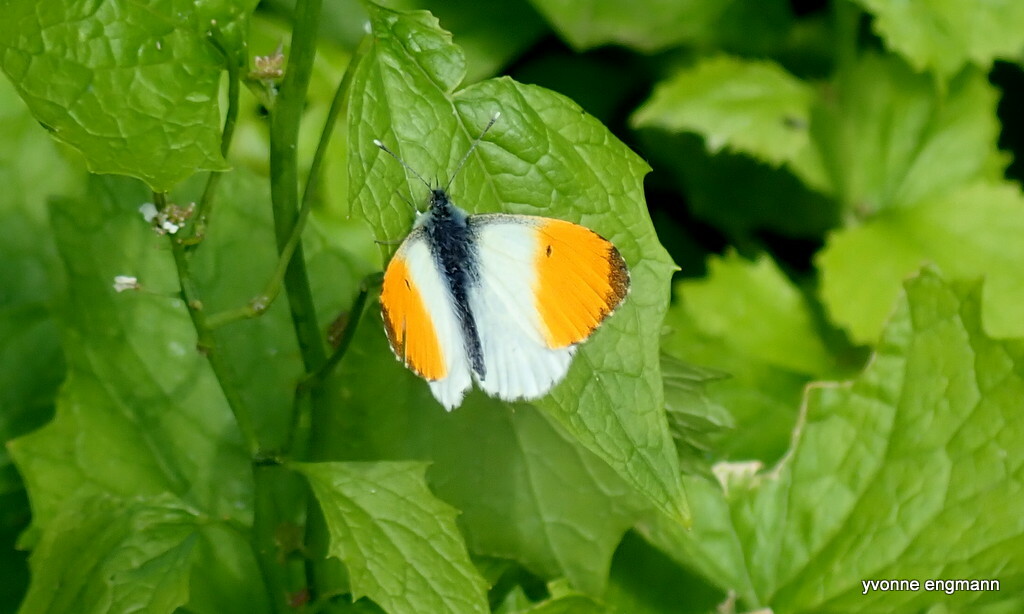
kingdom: Animalia
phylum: Arthropoda
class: Insecta
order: Lepidoptera
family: Pieridae
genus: Anthocharis
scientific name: Anthocharis cardamines
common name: Orange-tip
